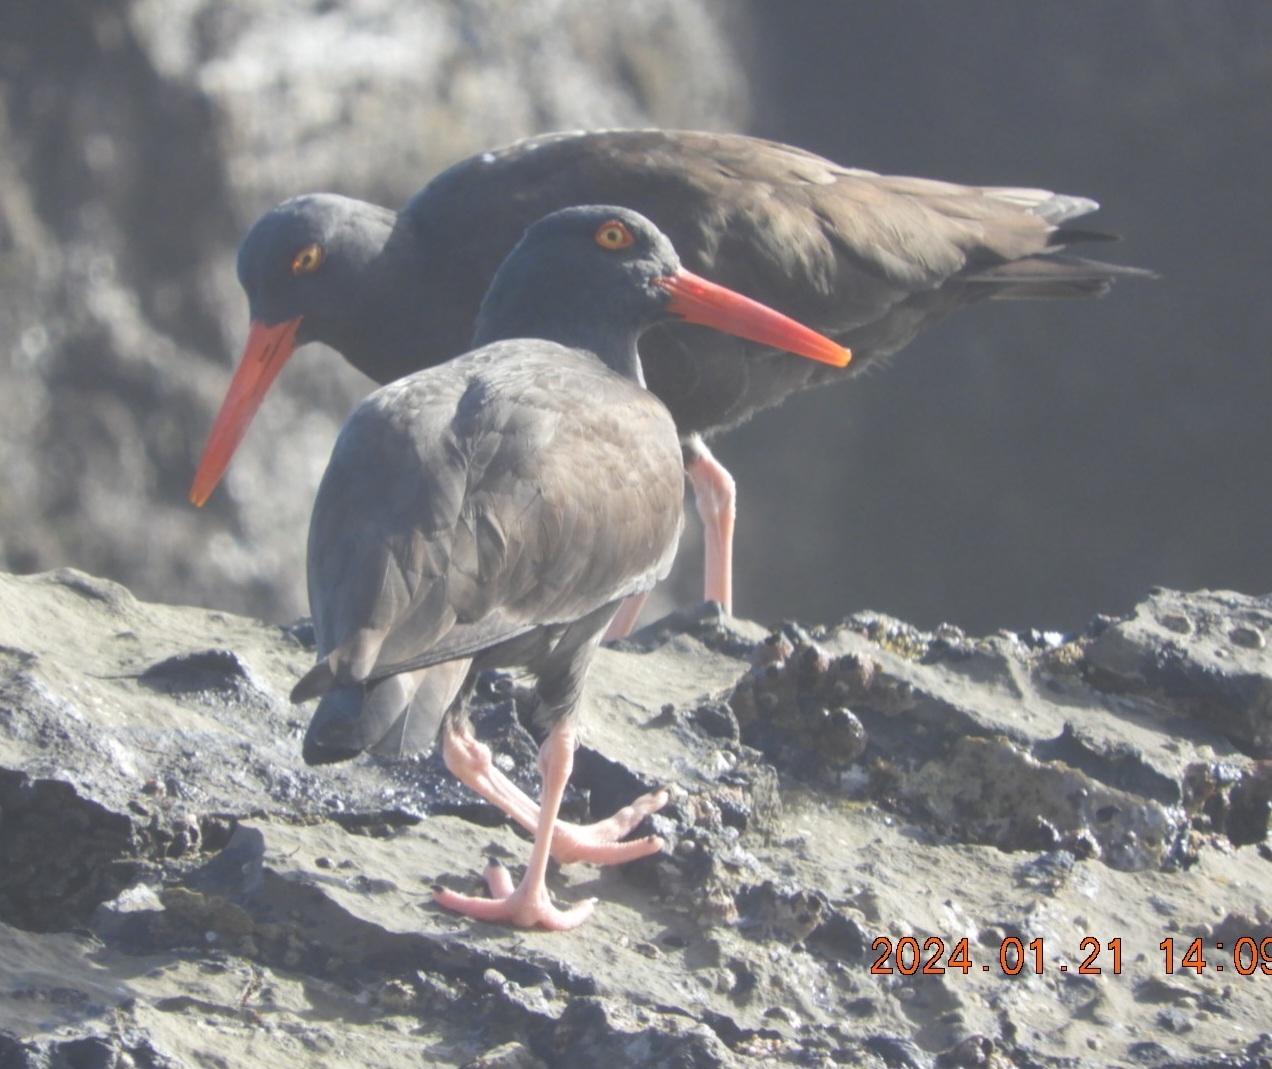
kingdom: Animalia
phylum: Chordata
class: Aves
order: Charadriiformes
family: Haematopodidae
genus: Haematopus
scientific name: Haematopus bachmani
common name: Black oystercatcher
